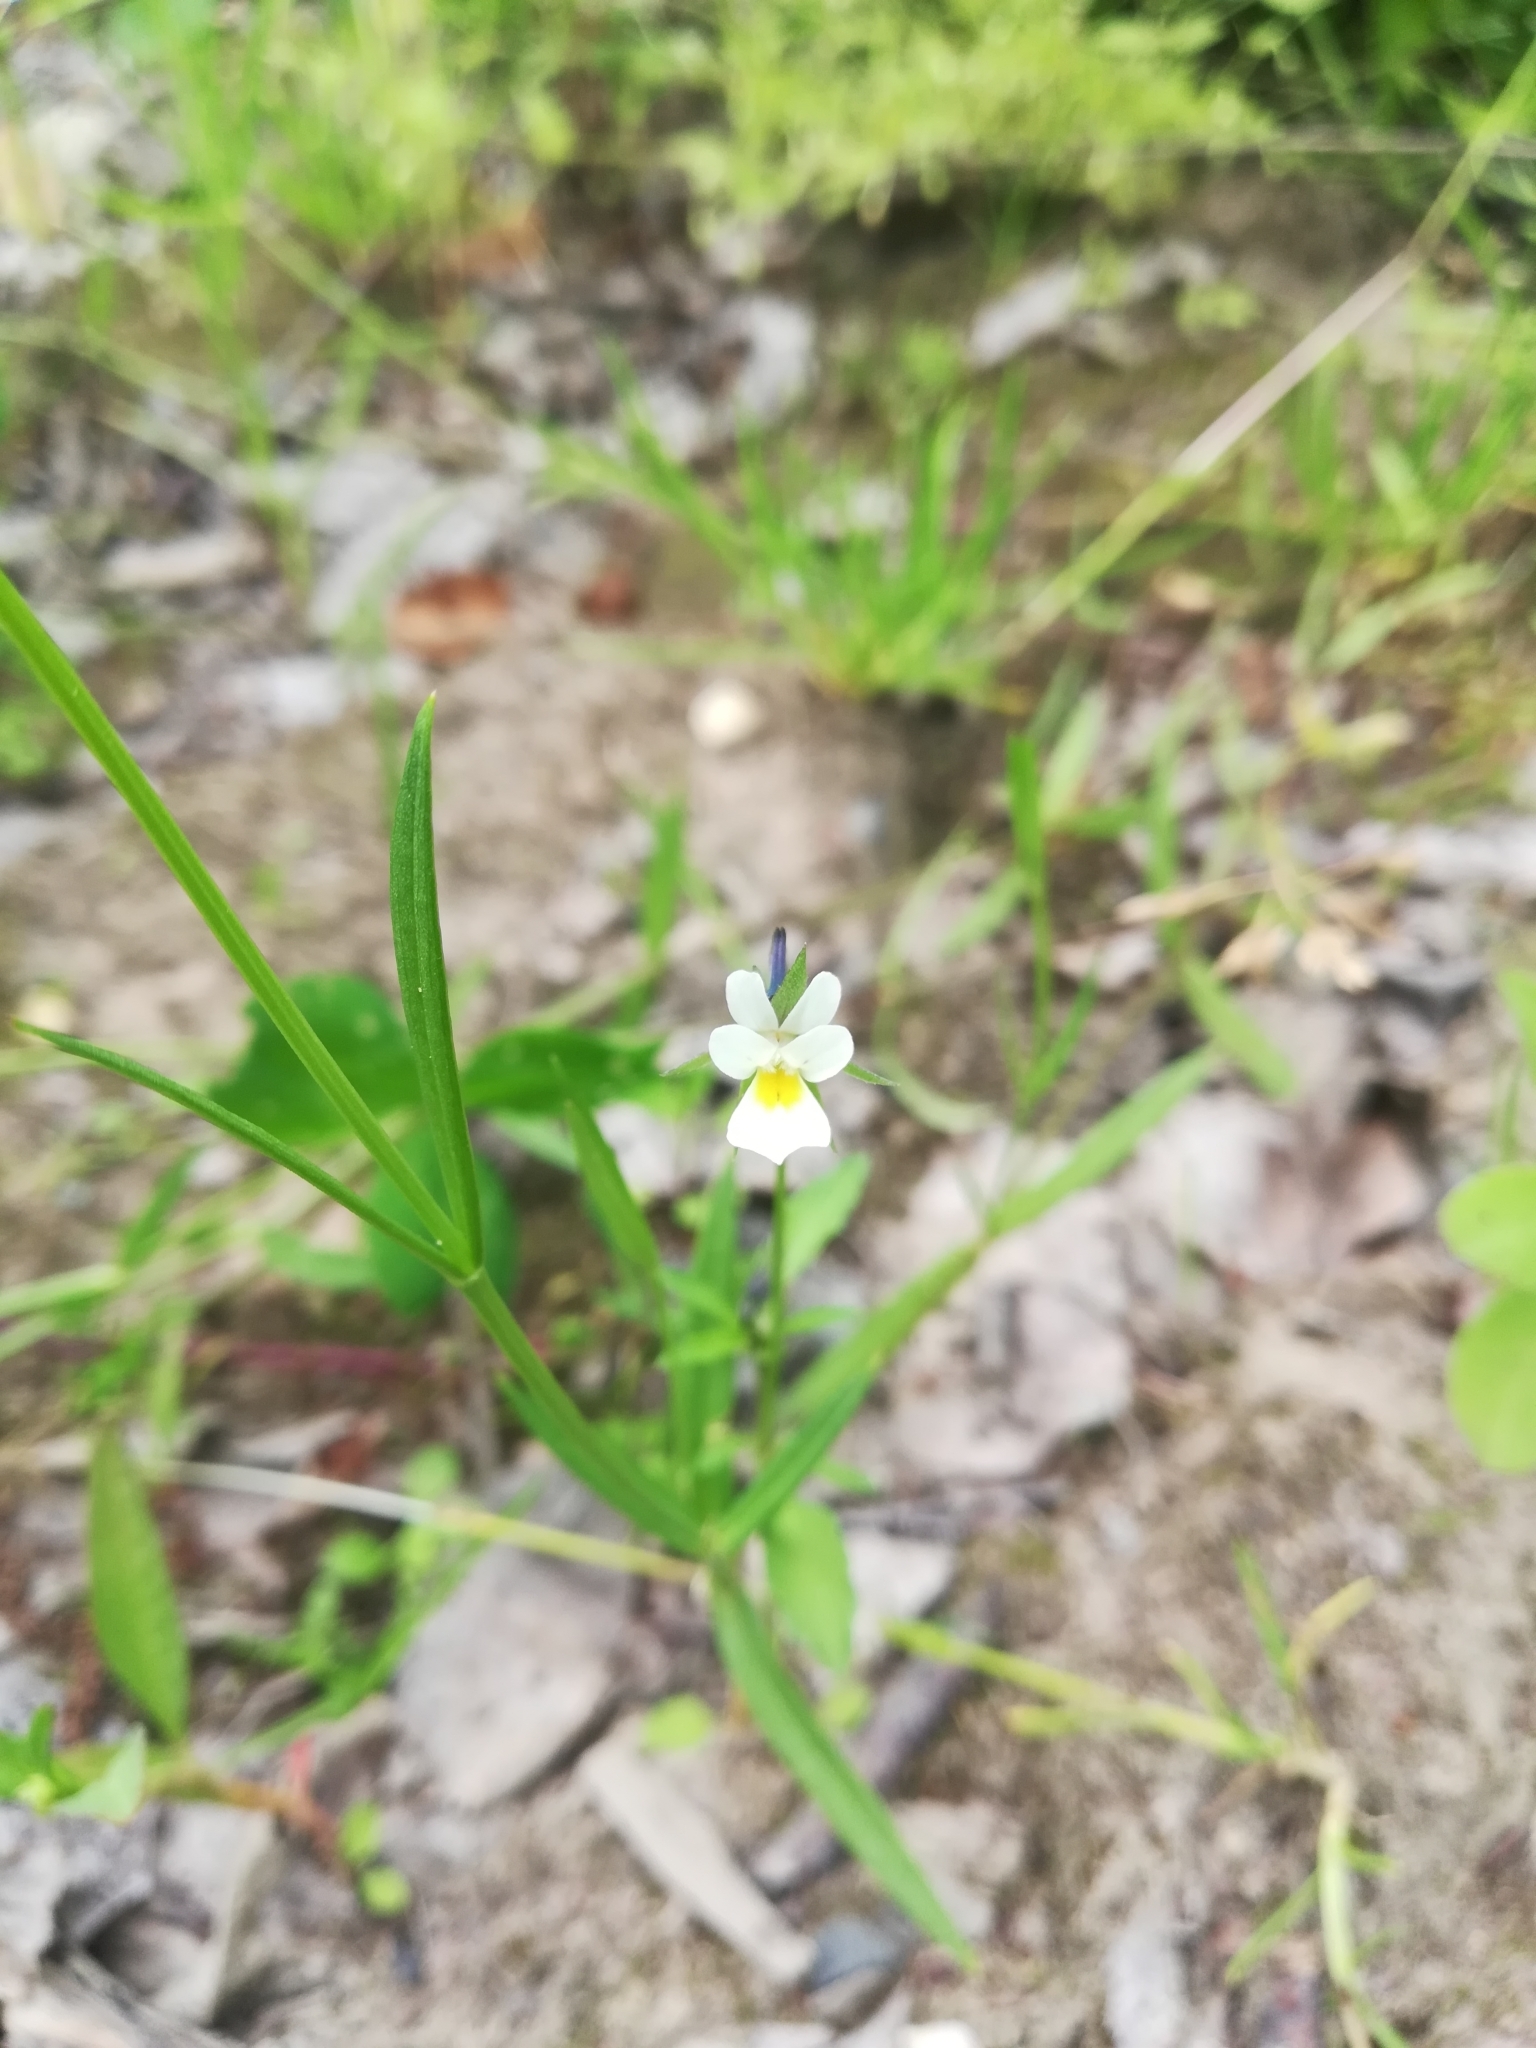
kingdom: Plantae
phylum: Tracheophyta
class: Magnoliopsida
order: Malpighiales
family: Violaceae
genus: Viola
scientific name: Viola arvensis
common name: Field pansy
